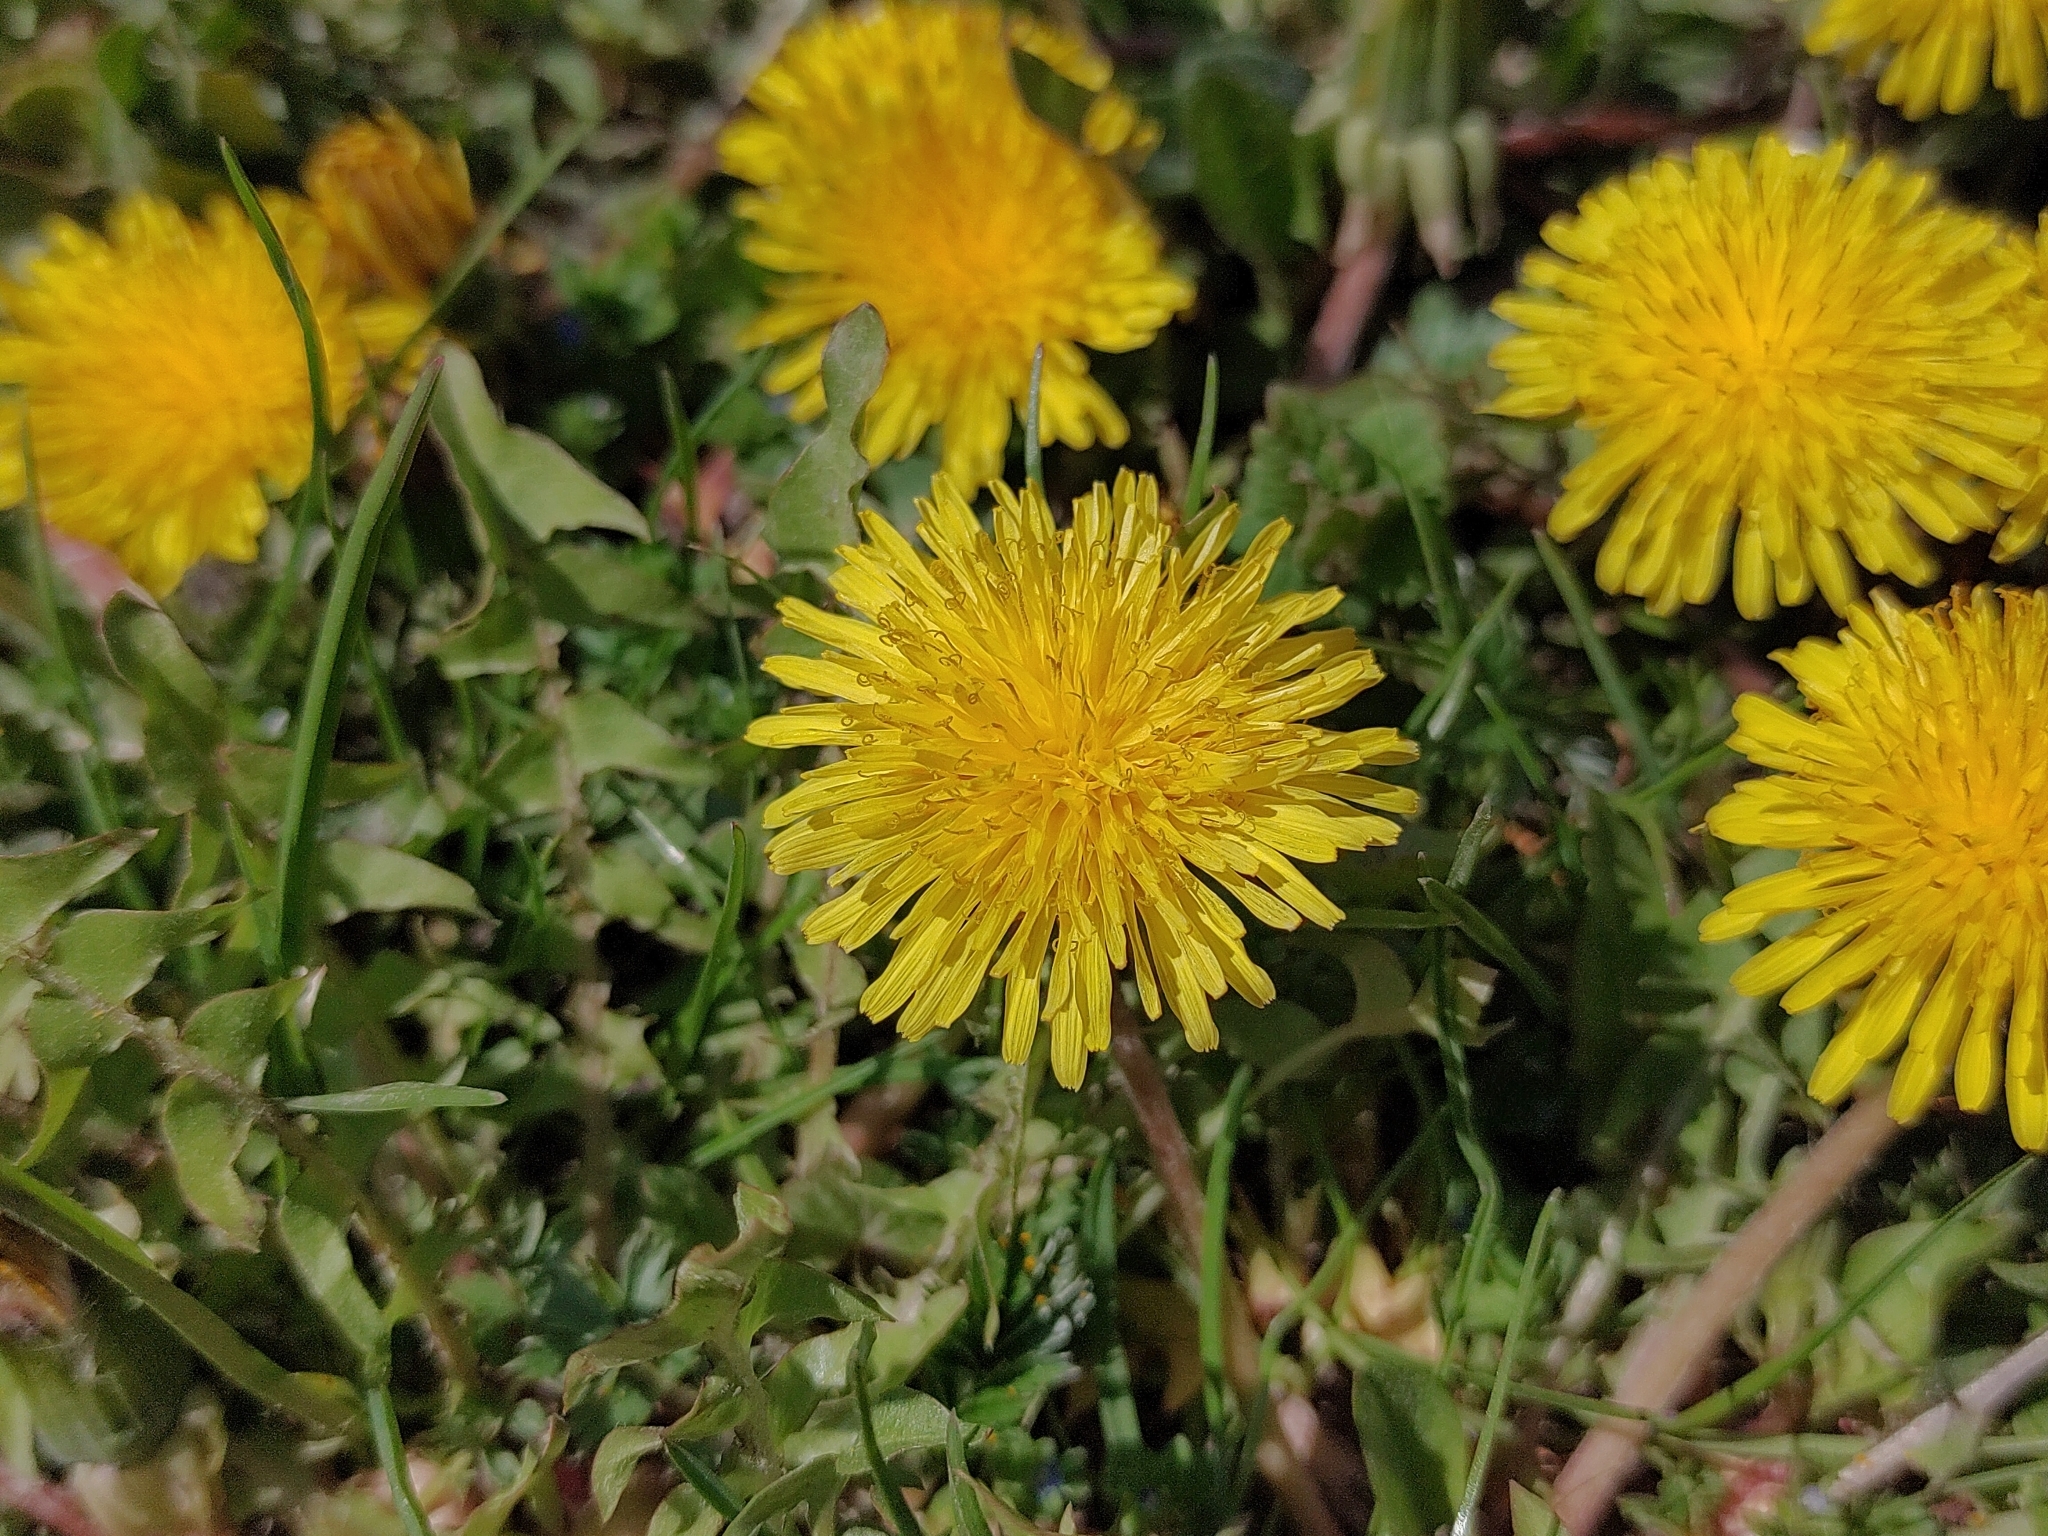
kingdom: Plantae
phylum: Tracheophyta
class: Magnoliopsida
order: Asterales
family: Asteraceae
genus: Taraxacum
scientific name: Taraxacum
